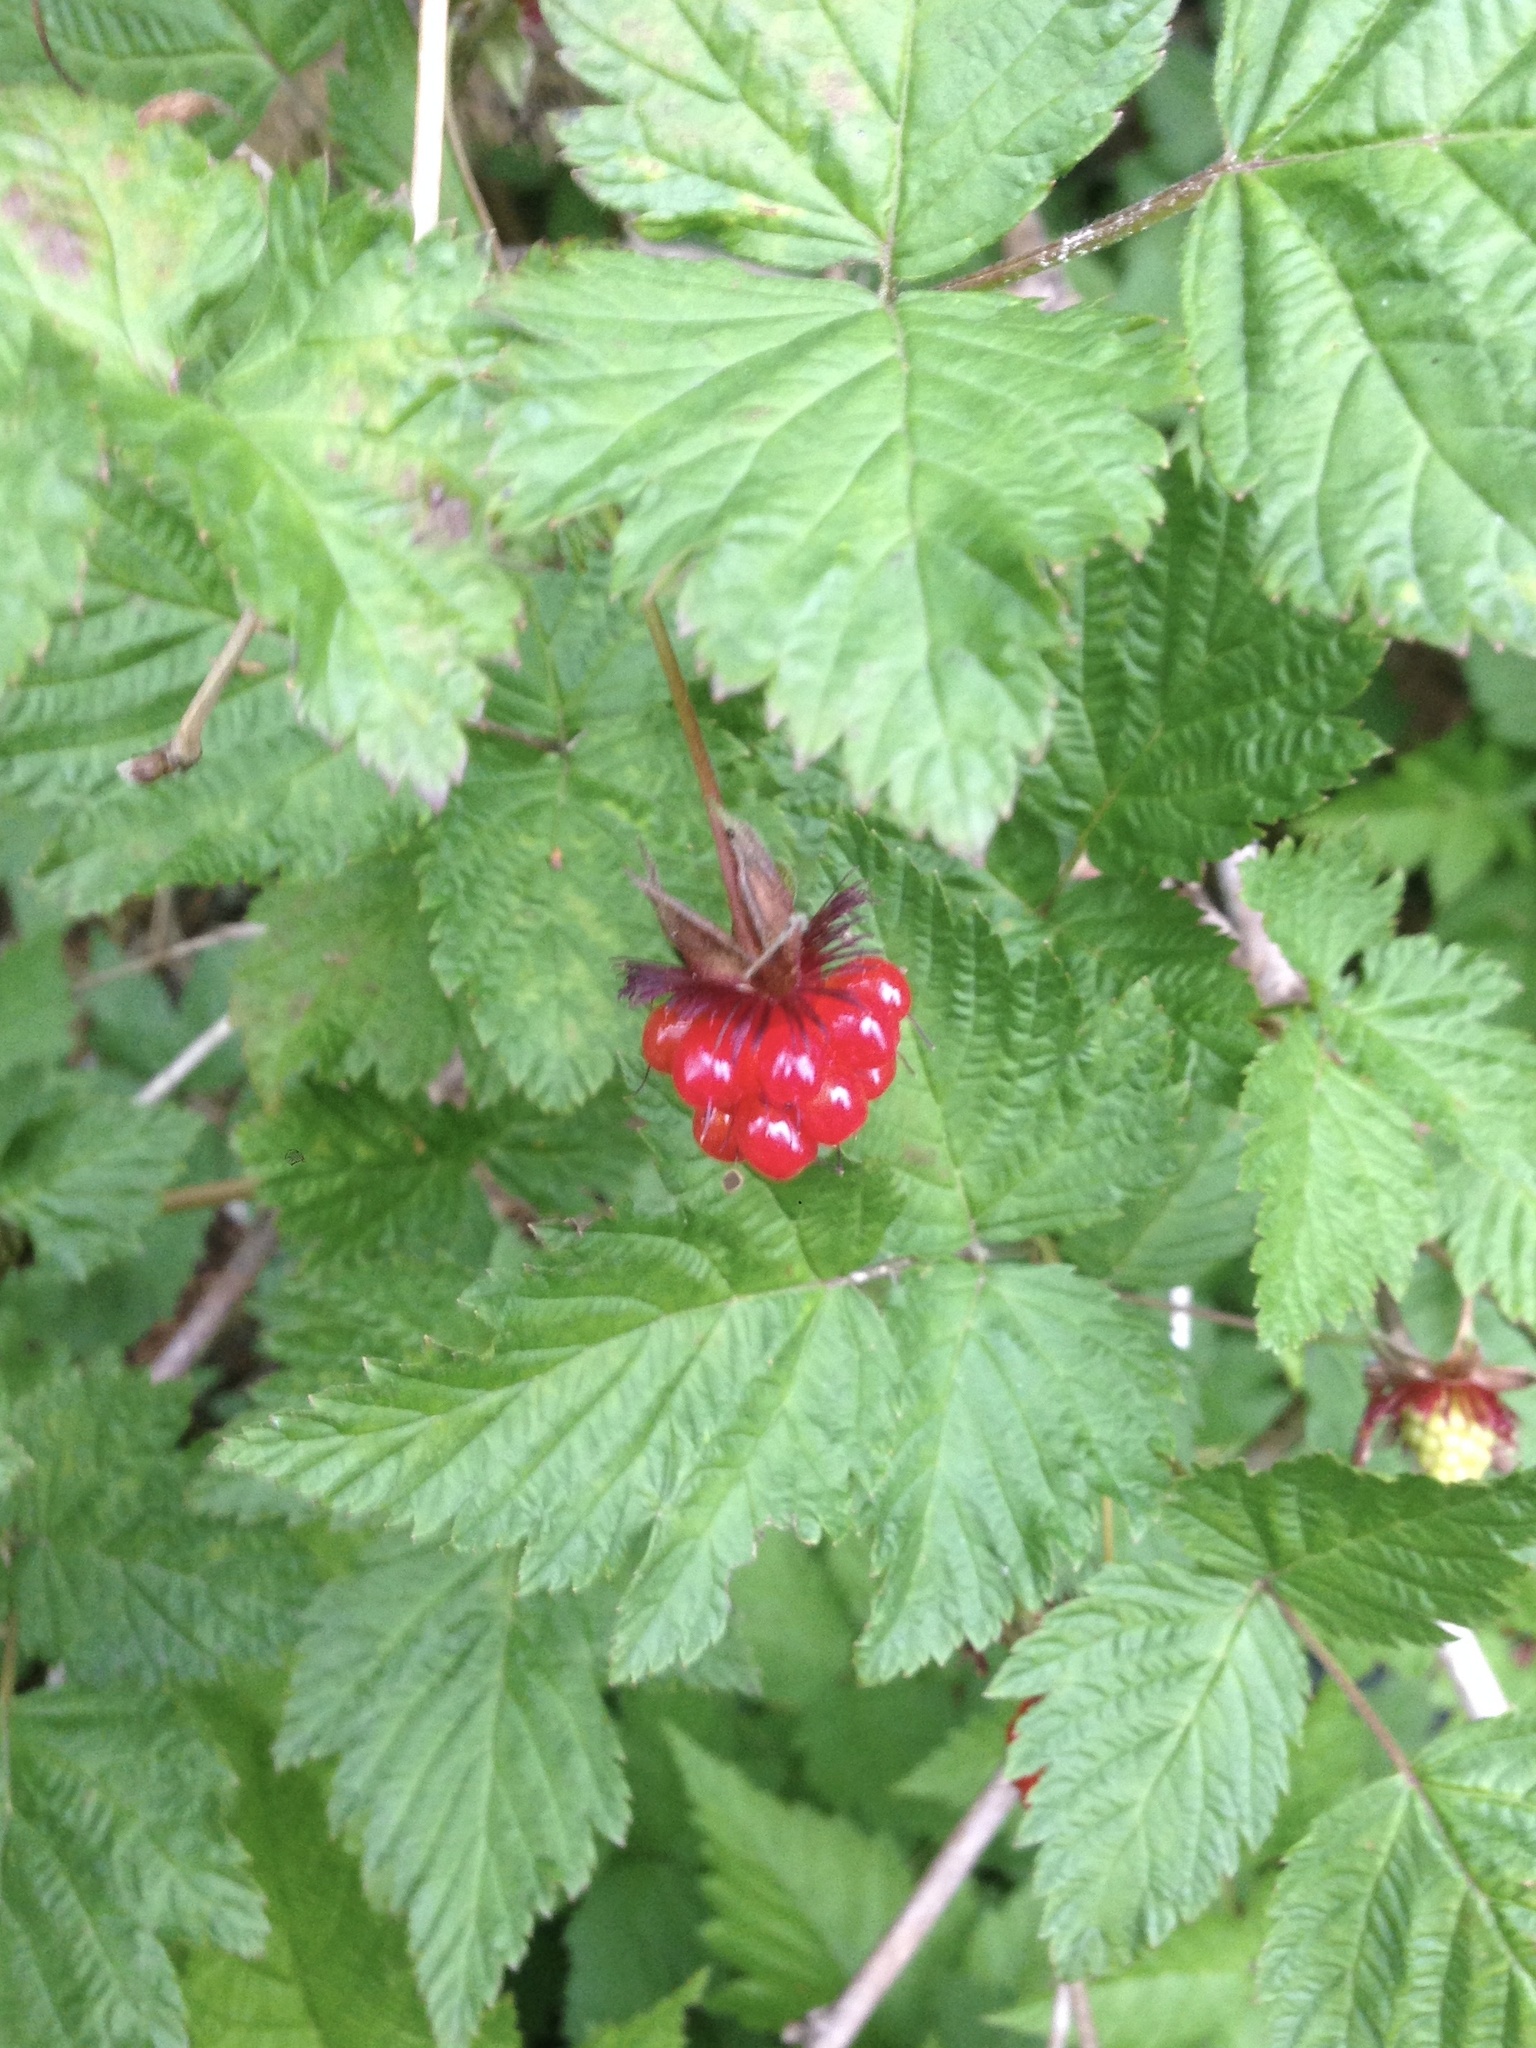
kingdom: Plantae
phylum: Tracheophyta
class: Magnoliopsida
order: Rosales
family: Rosaceae
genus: Rubus
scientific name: Rubus spectabilis
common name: Salmonberry
